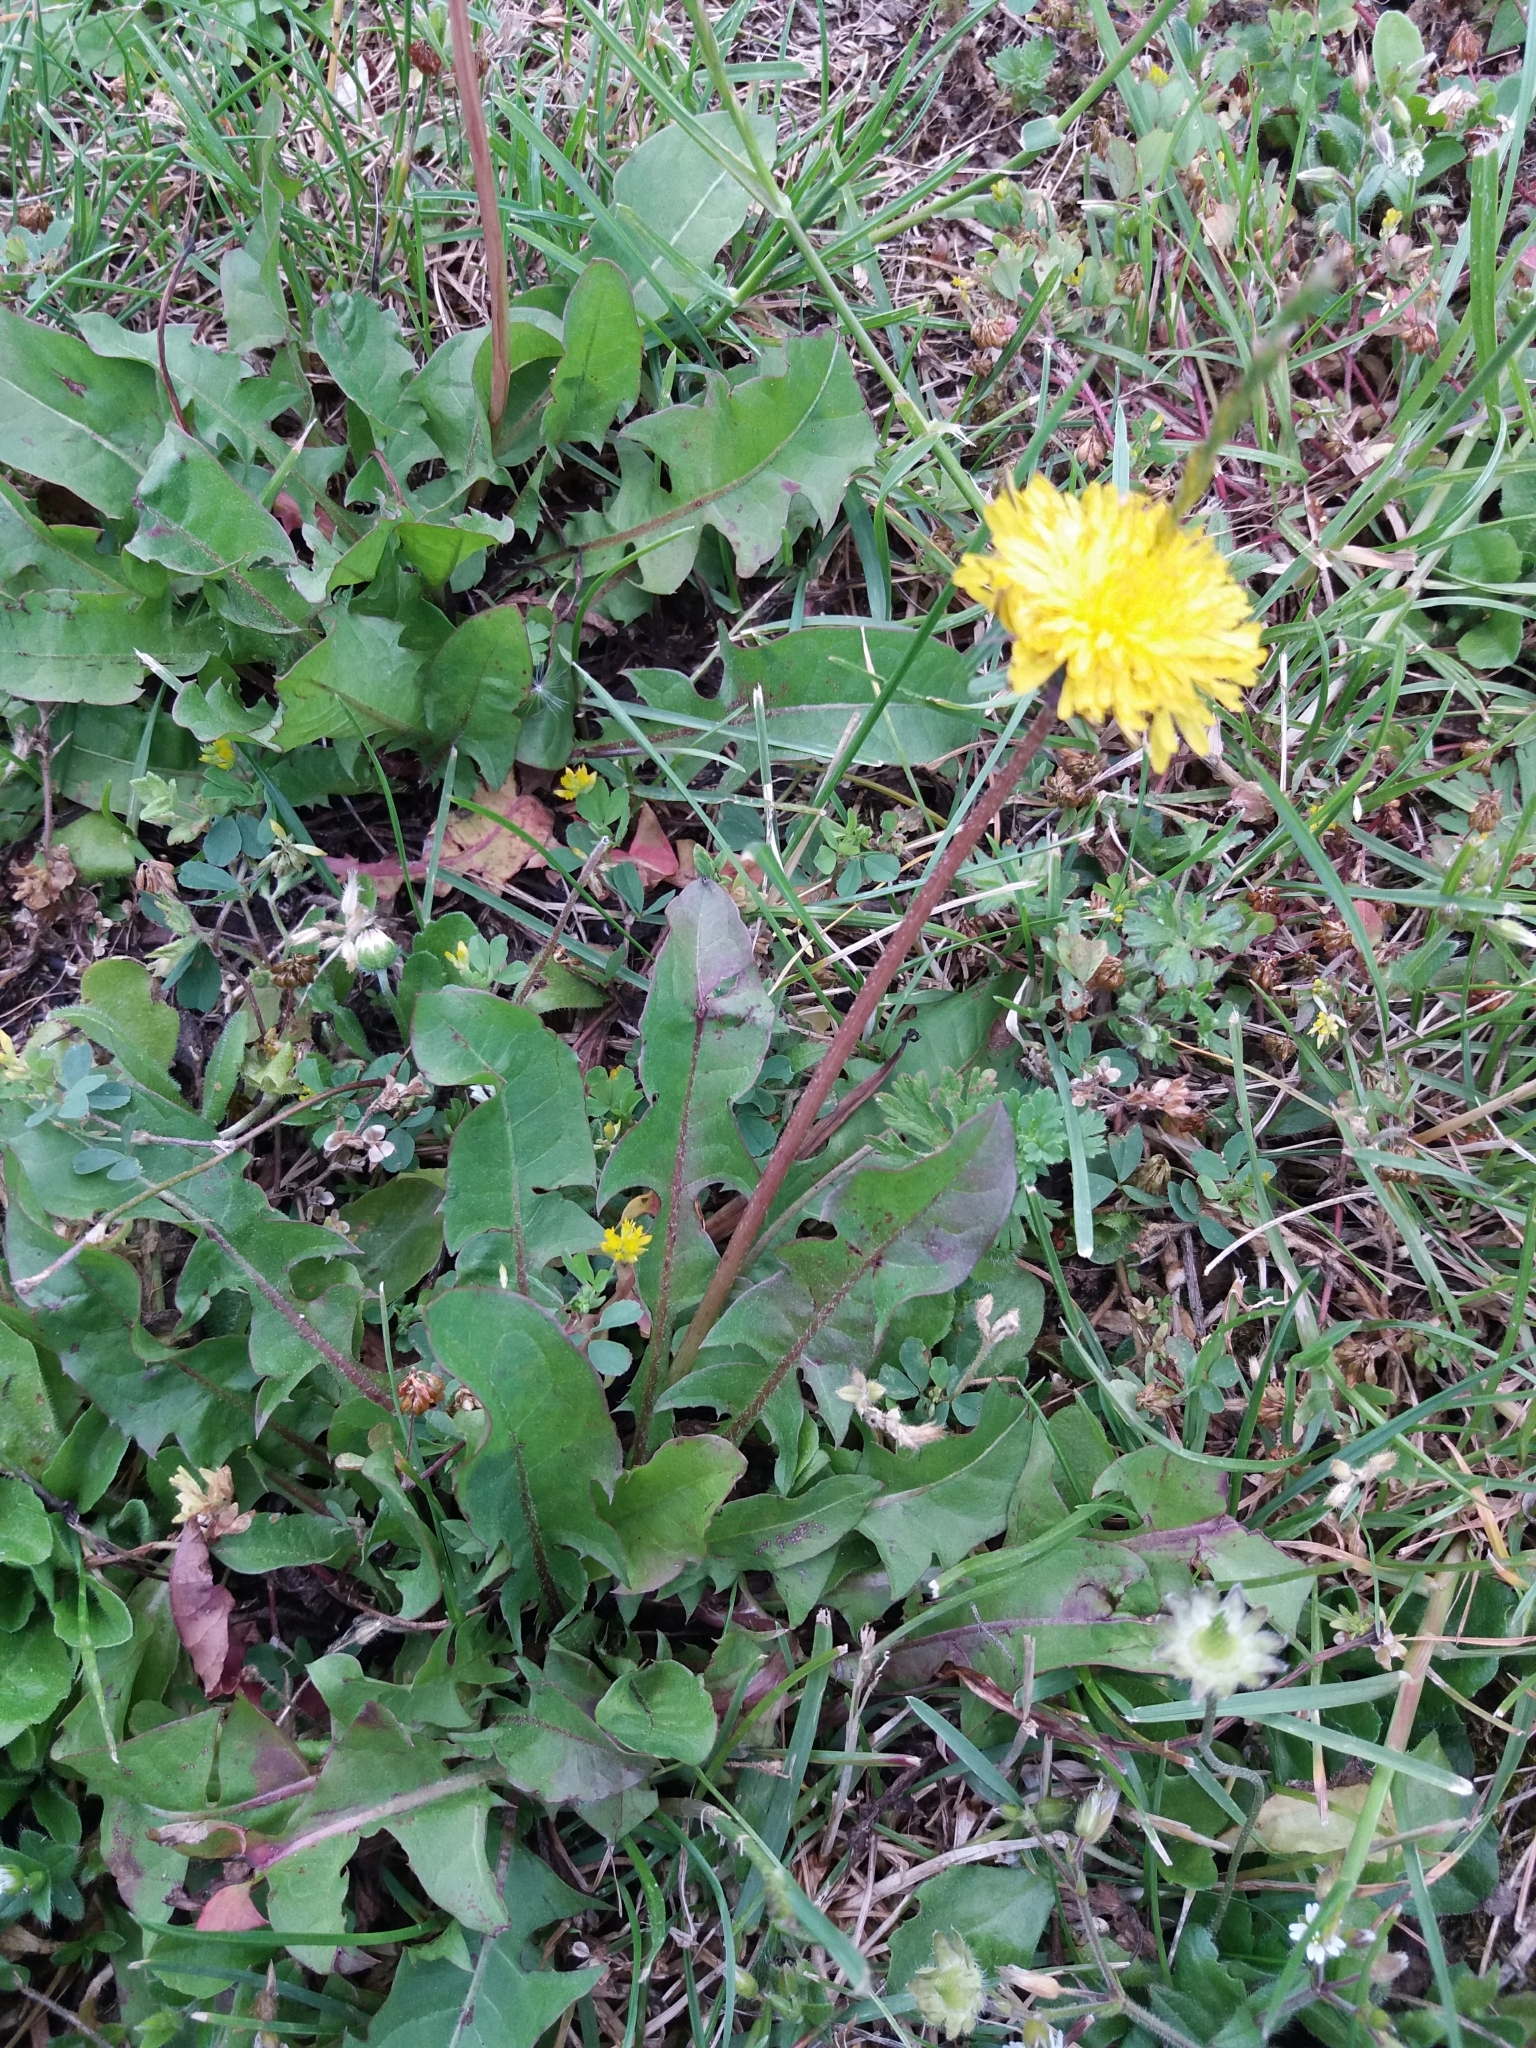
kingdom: Plantae
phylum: Tracheophyta
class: Magnoliopsida
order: Asterales
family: Asteraceae
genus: Taraxacum
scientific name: Taraxacum officinale
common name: Common dandelion
